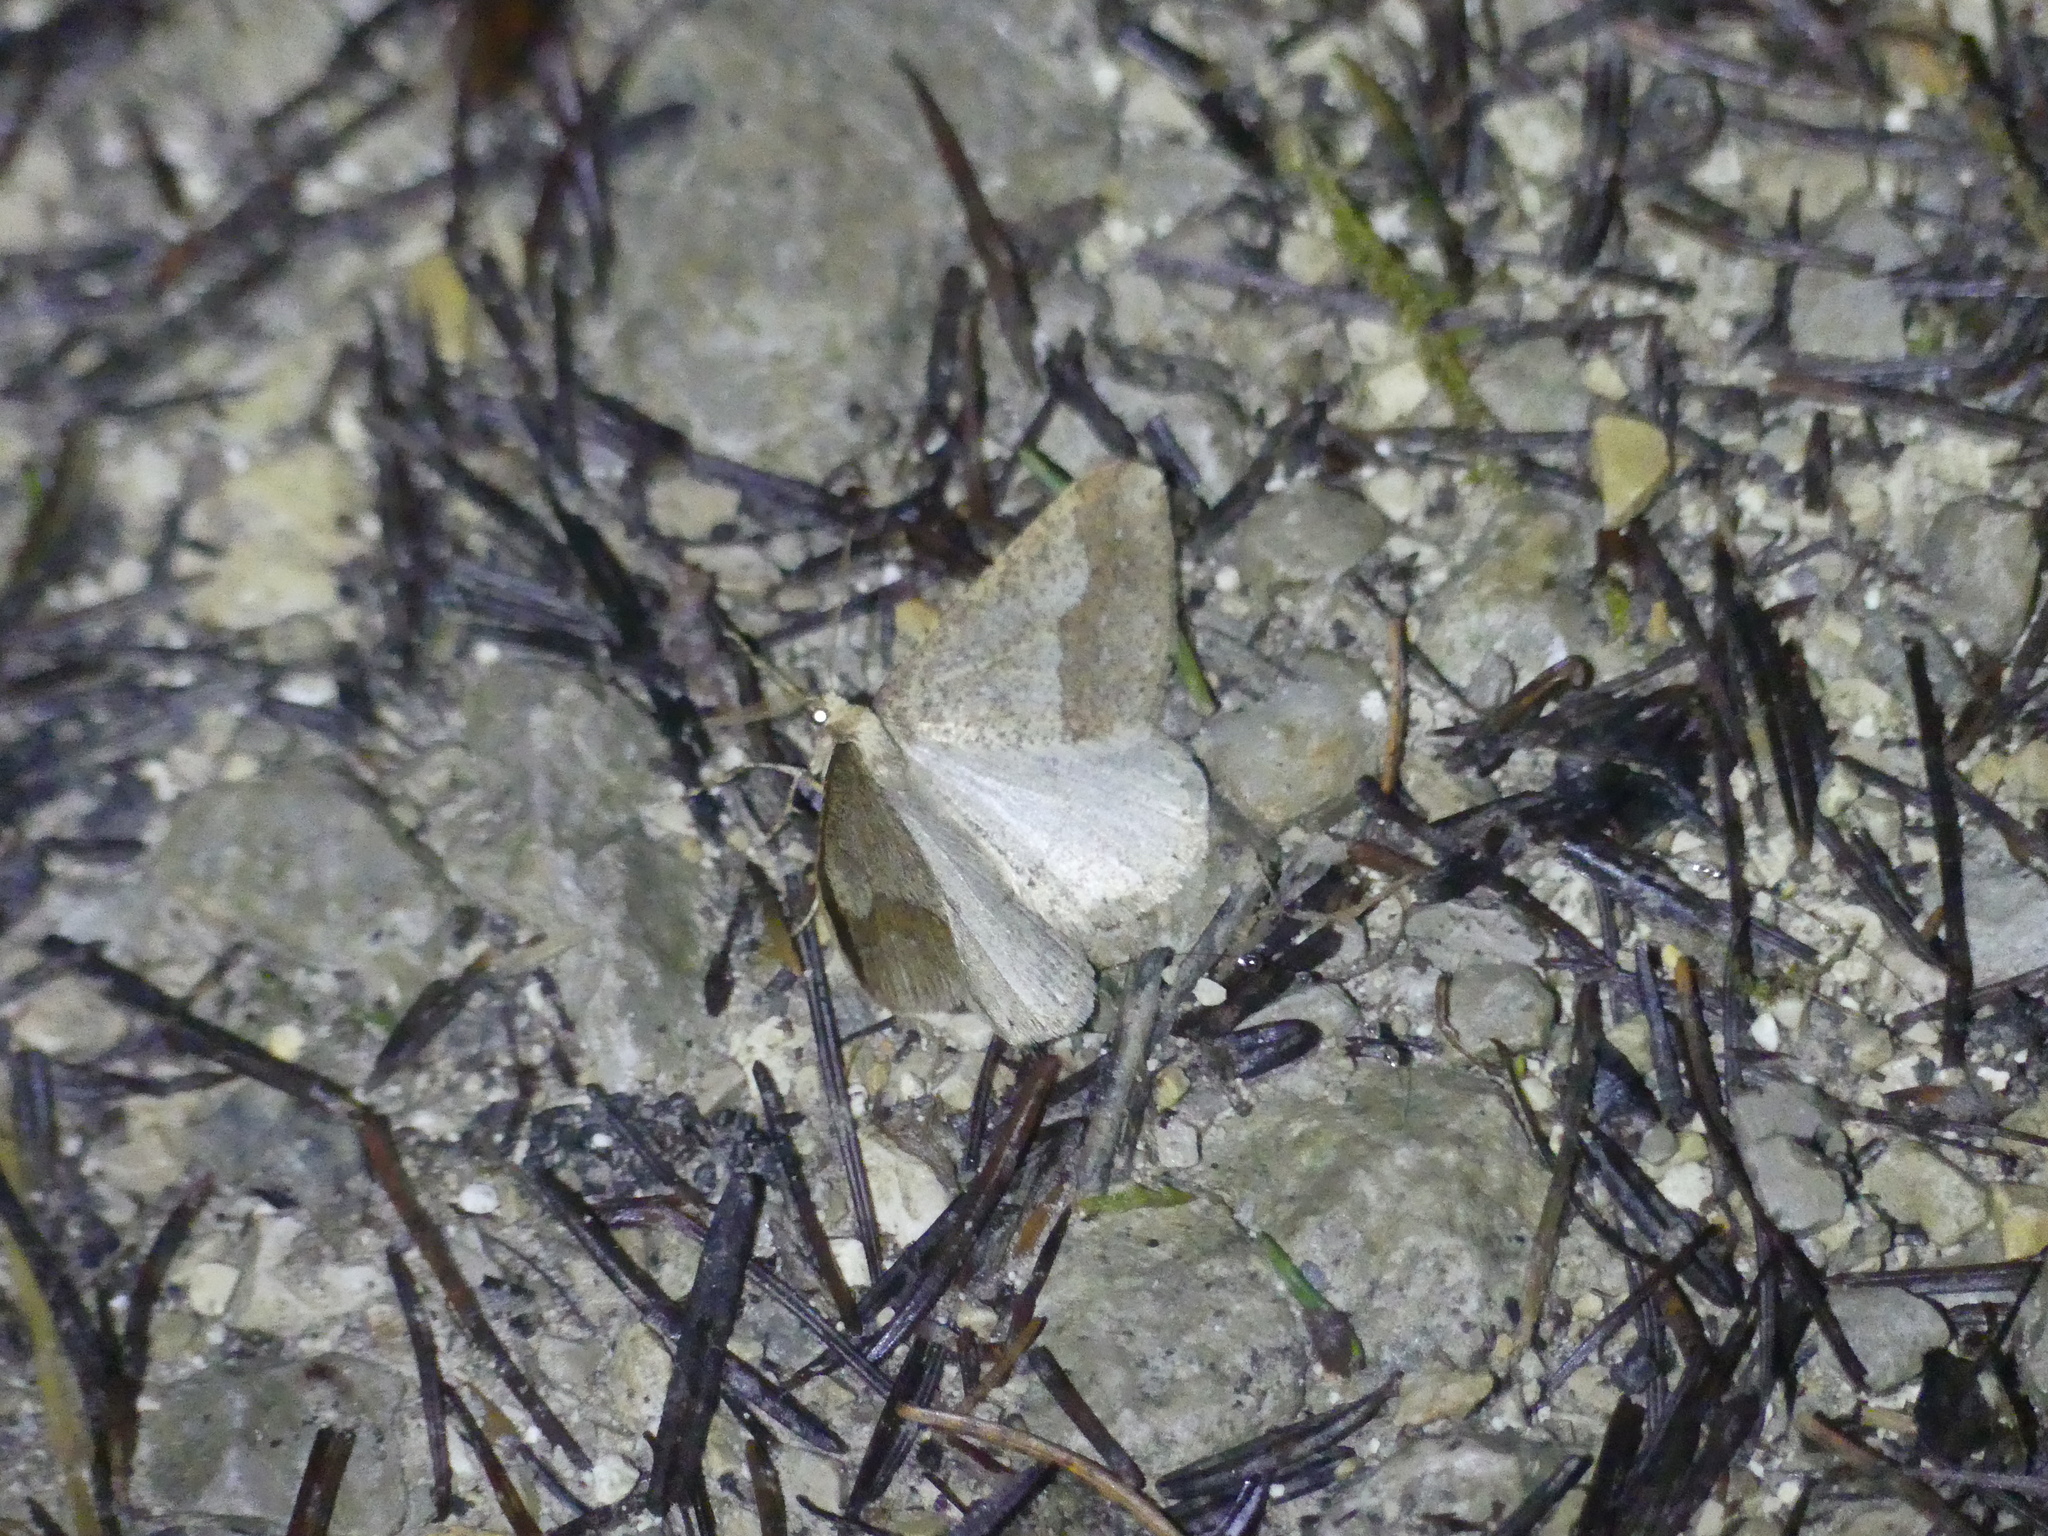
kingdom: Animalia
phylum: Arthropoda
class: Insecta
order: Lepidoptera
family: Geometridae
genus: Agriopis
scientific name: Agriopis marginaria
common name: Dotted border
